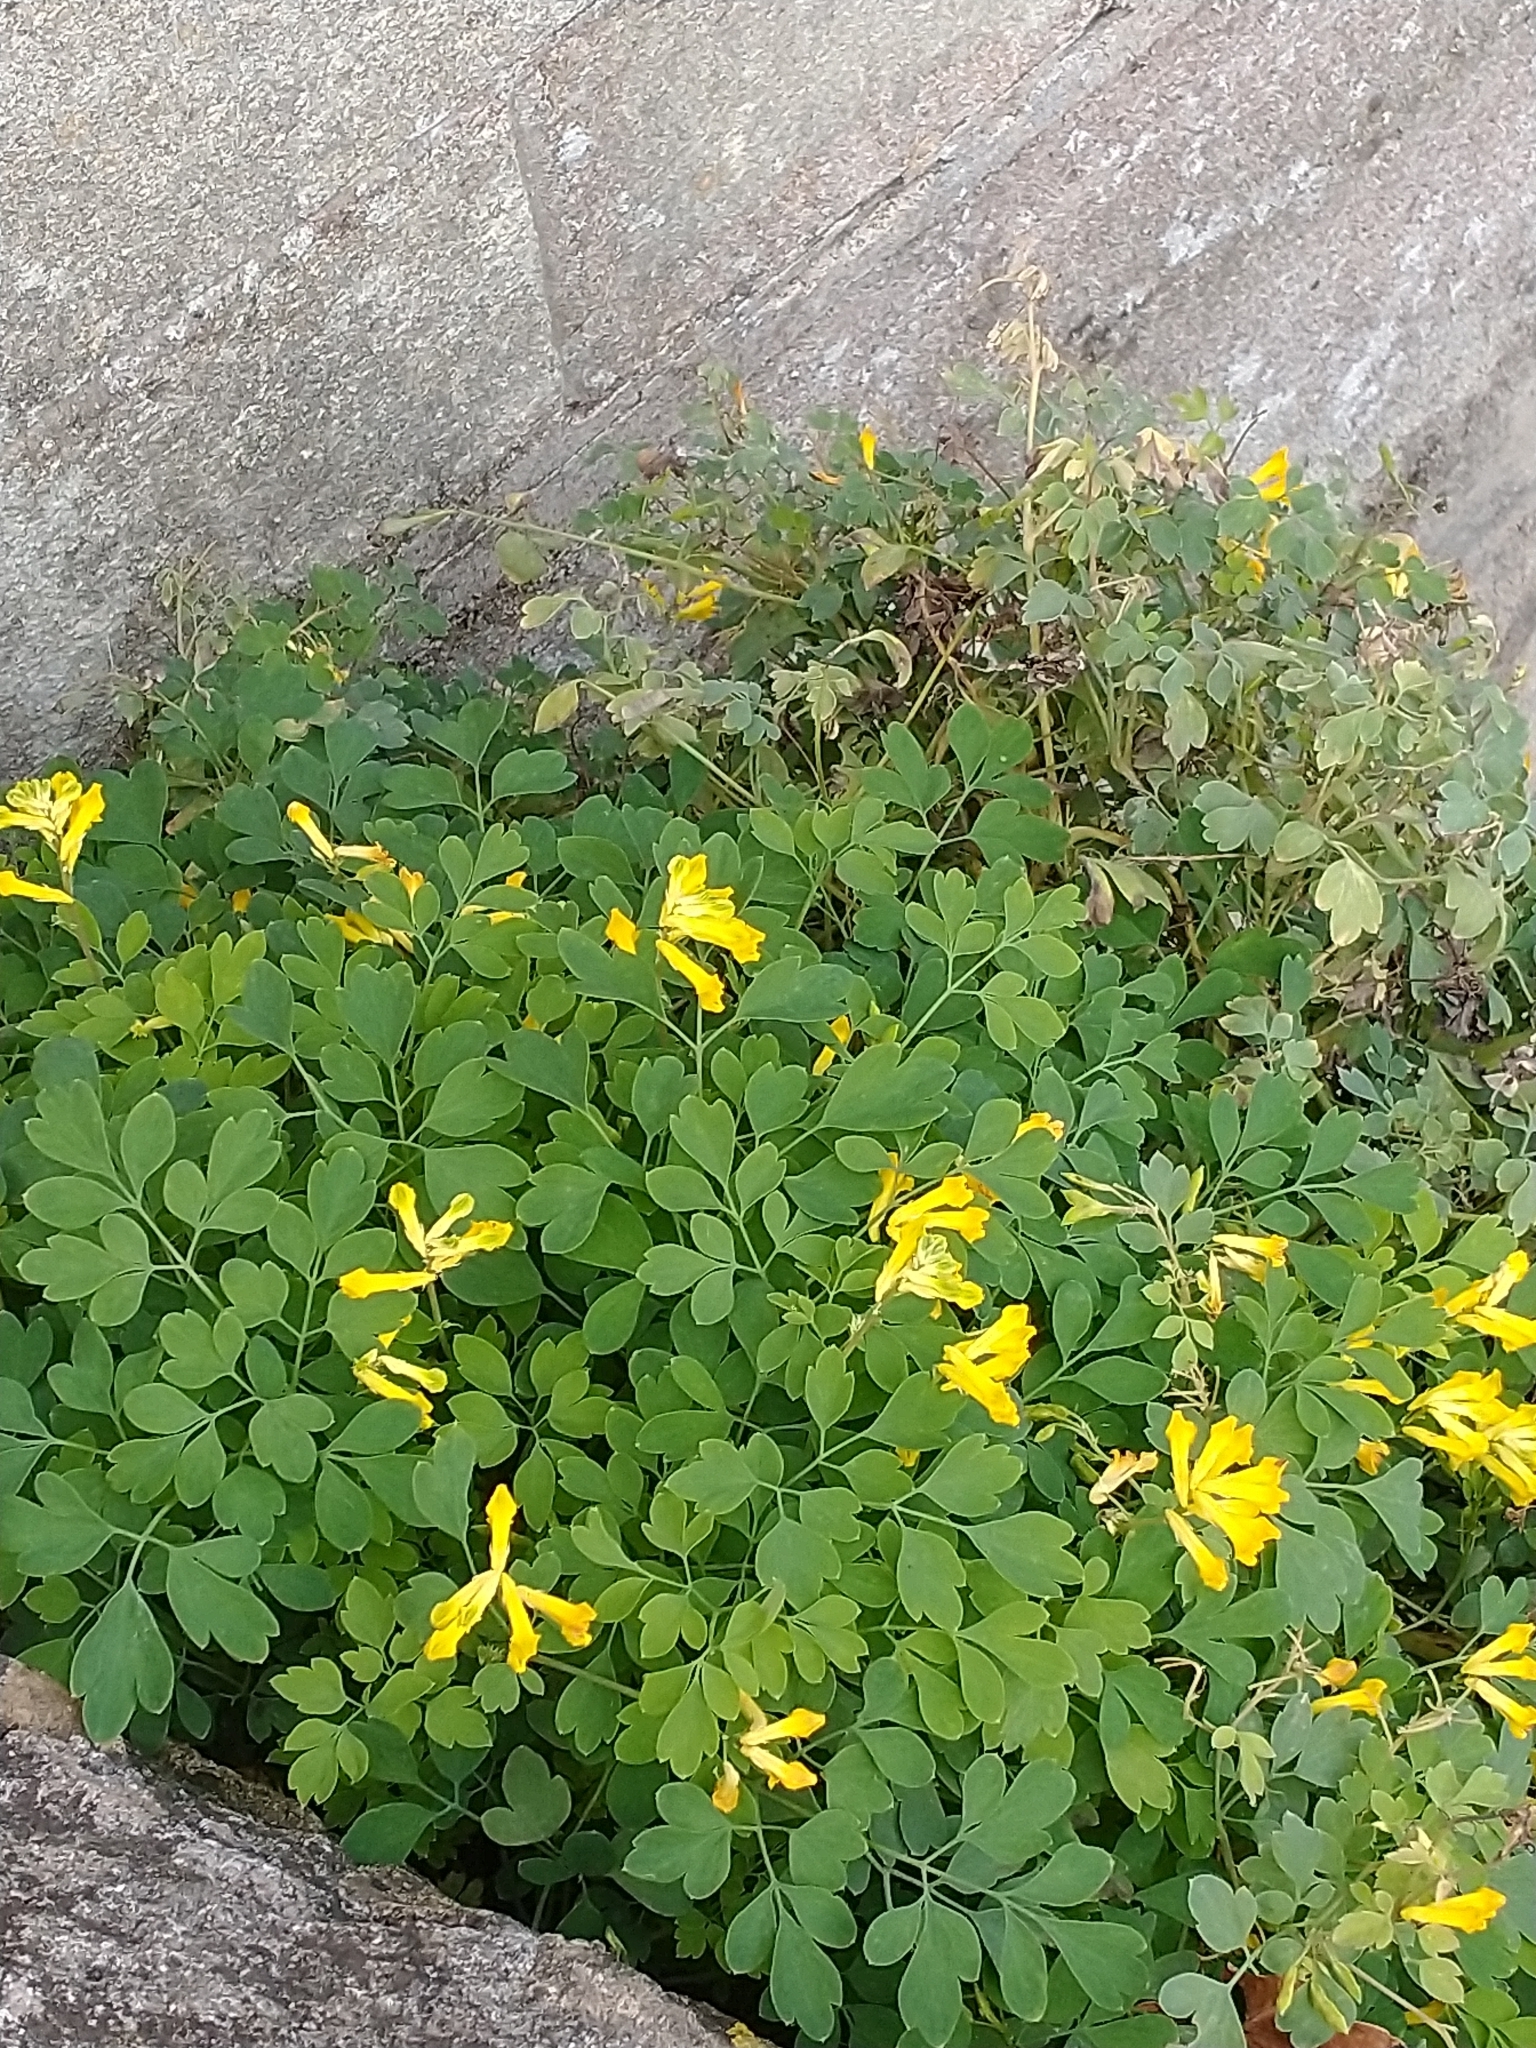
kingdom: Plantae
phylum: Tracheophyta
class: Magnoliopsida
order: Ranunculales
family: Papaveraceae
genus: Pseudofumaria
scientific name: Pseudofumaria lutea
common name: Yellow corydalis
